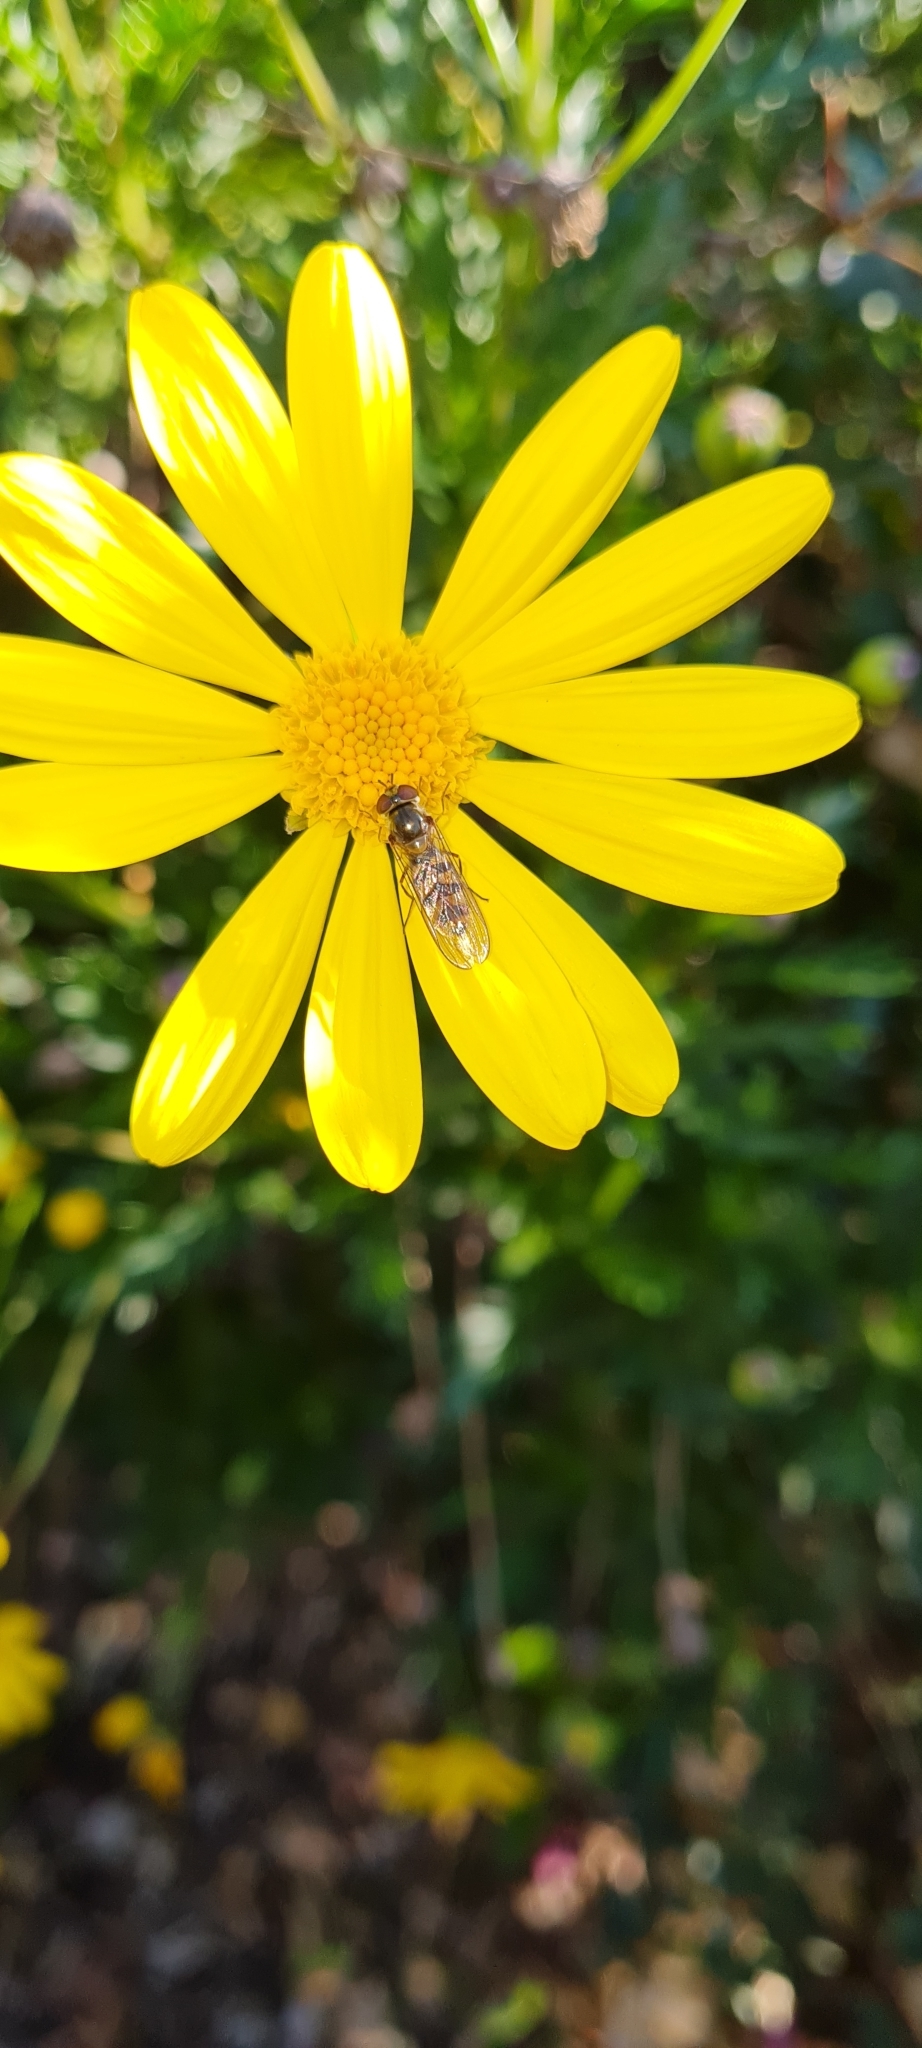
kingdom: Animalia
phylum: Arthropoda
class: Insecta
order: Diptera
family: Syrphidae
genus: Meliscaeva
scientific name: Meliscaeva auricollis
